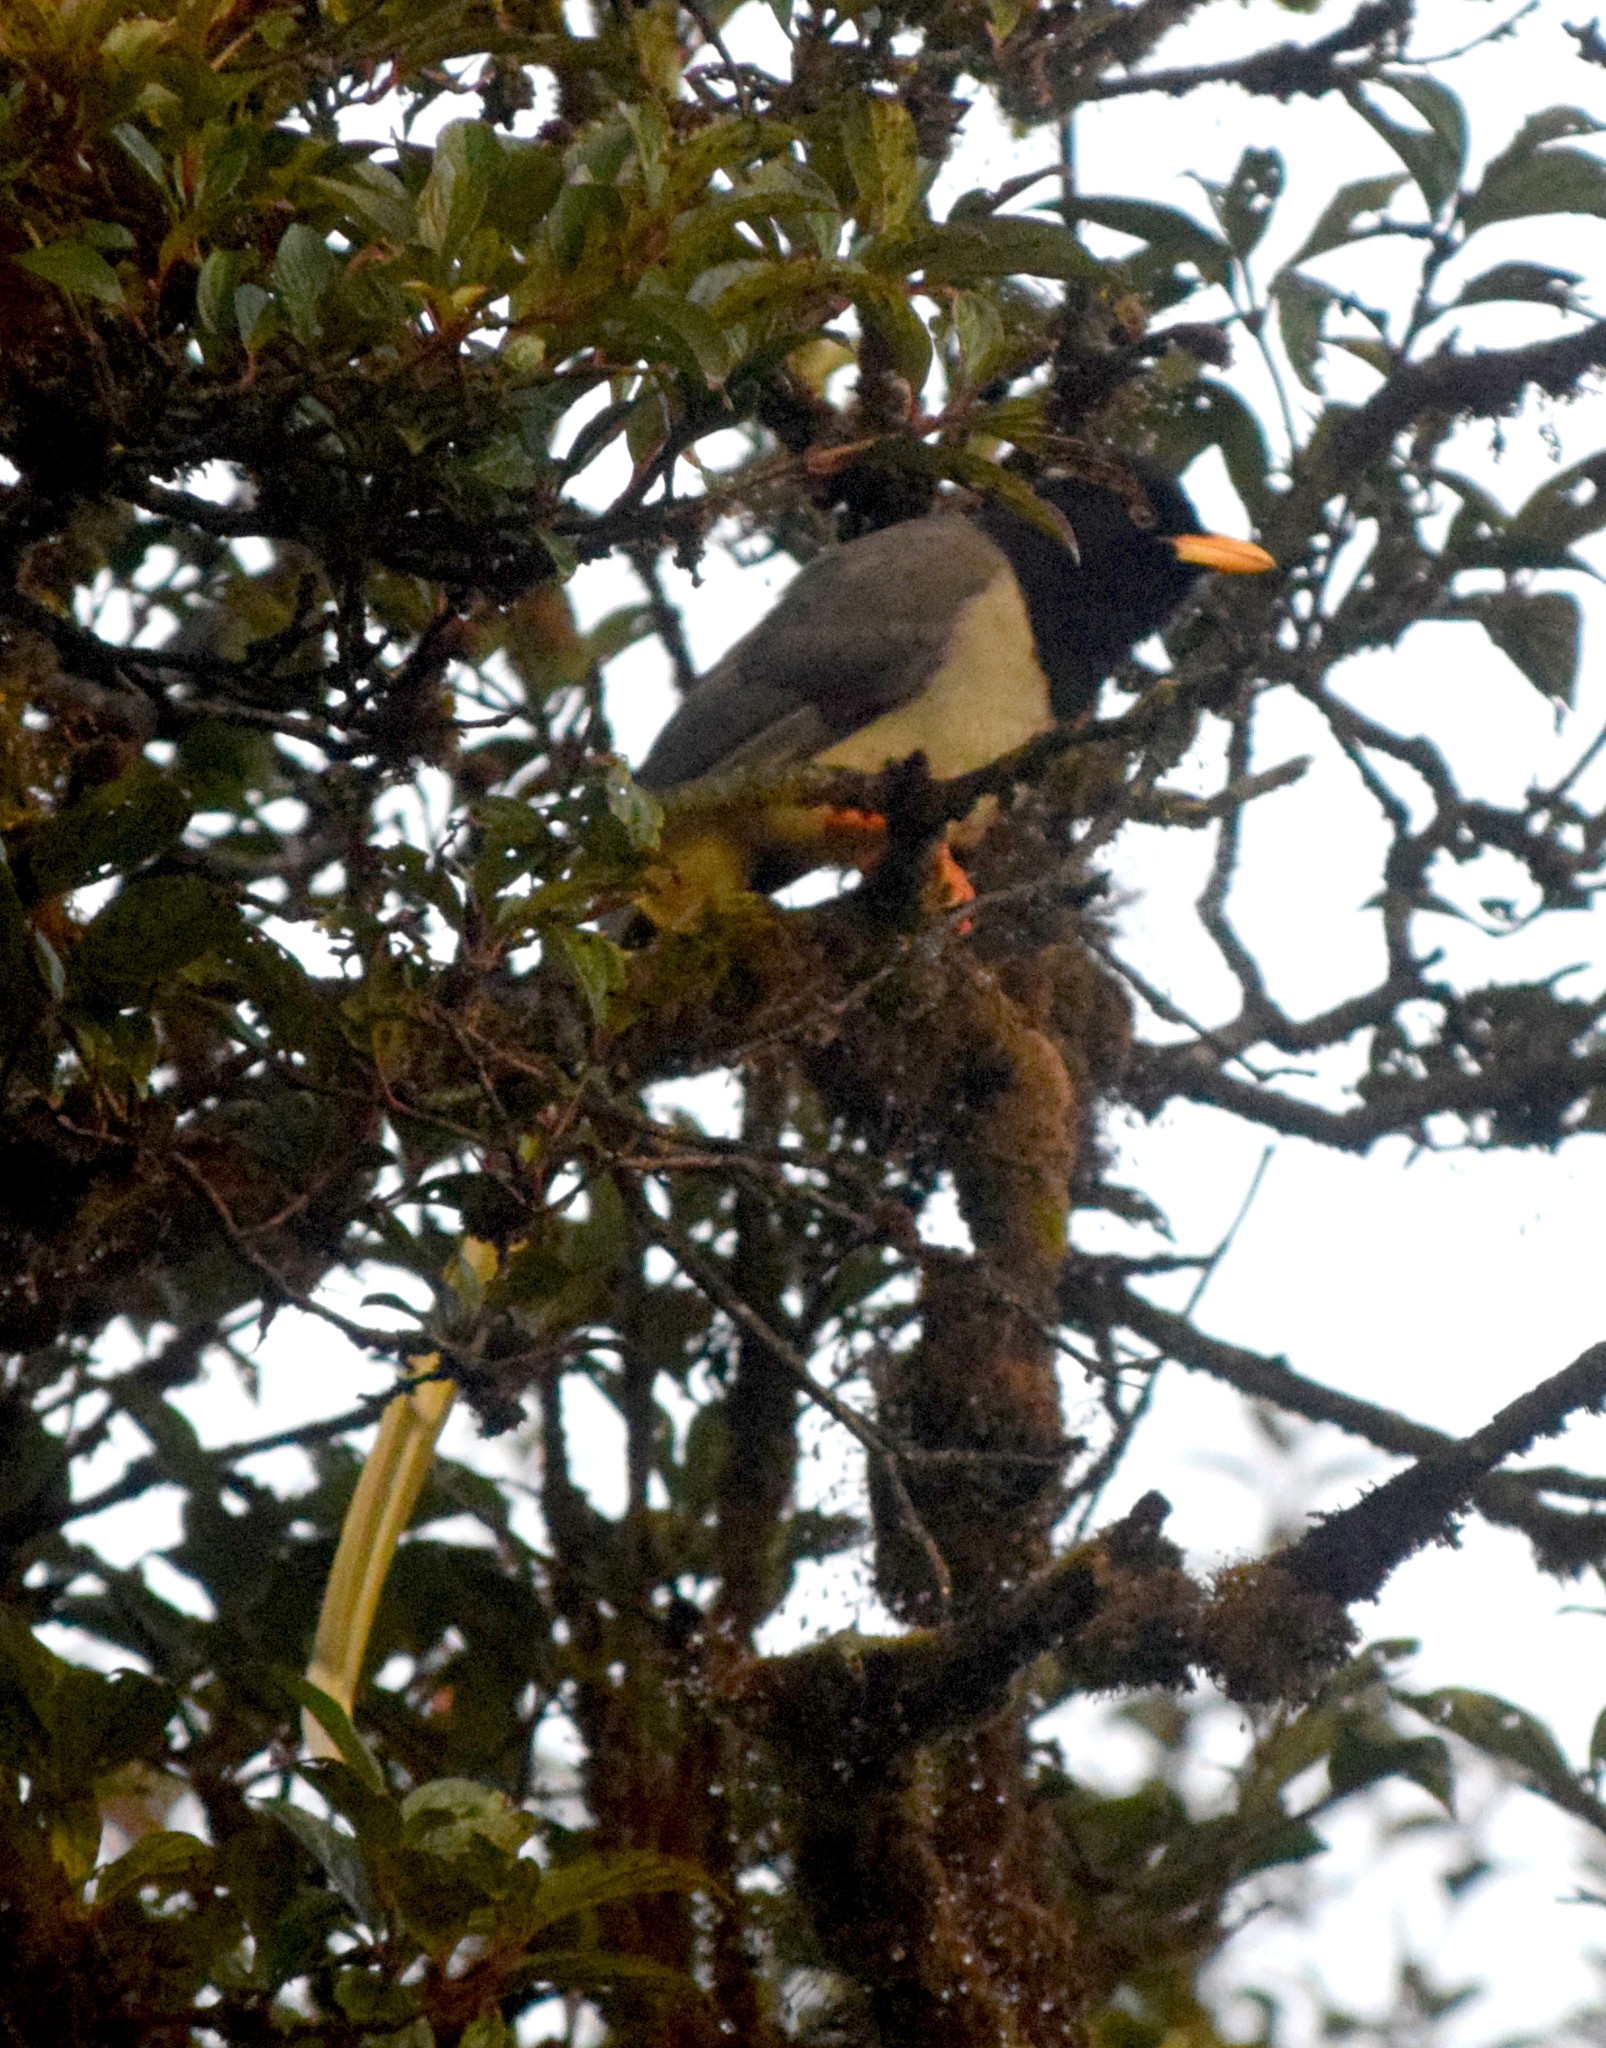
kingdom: Animalia
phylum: Chordata
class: Aves
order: Passeriformes
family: Corvidae
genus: Urocissa
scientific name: Urocissa flavirostris
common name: Yellow-billed blue magpie
